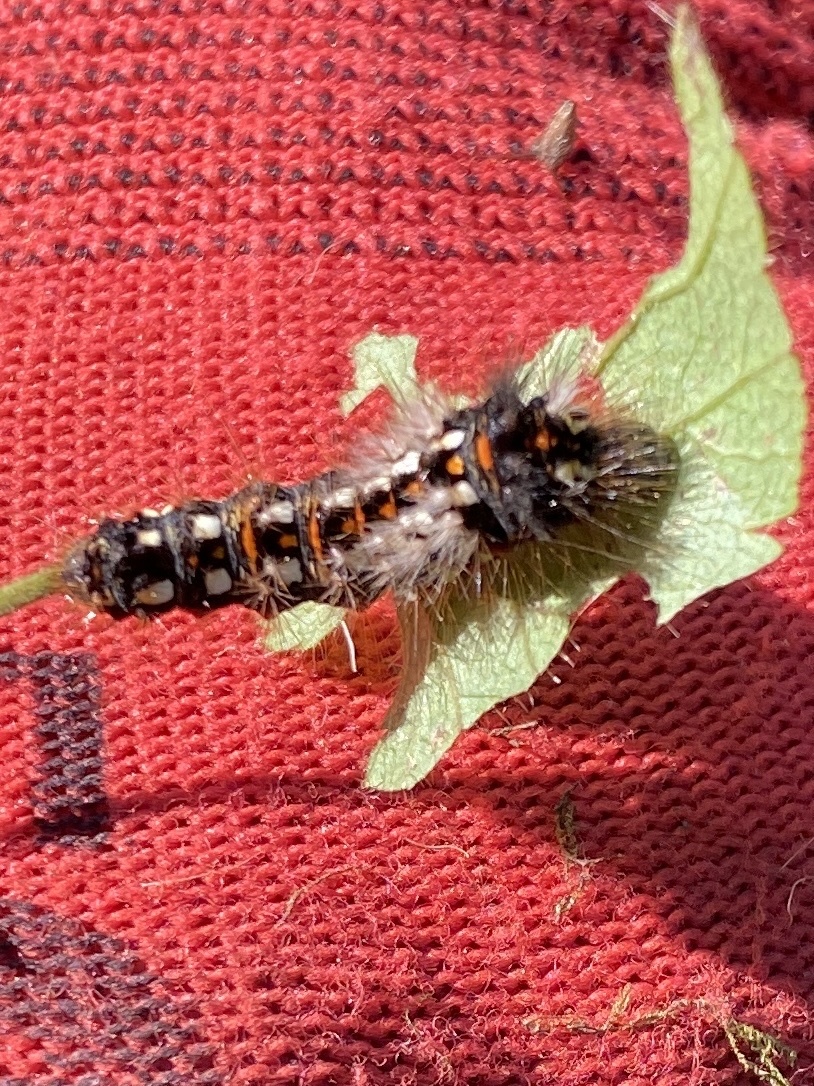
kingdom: Animalia
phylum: Arthropoda
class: Insecta
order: Lepidoptera
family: Noctuidae
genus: Acronicta
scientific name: Acronicta rumicis
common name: Knot grass
